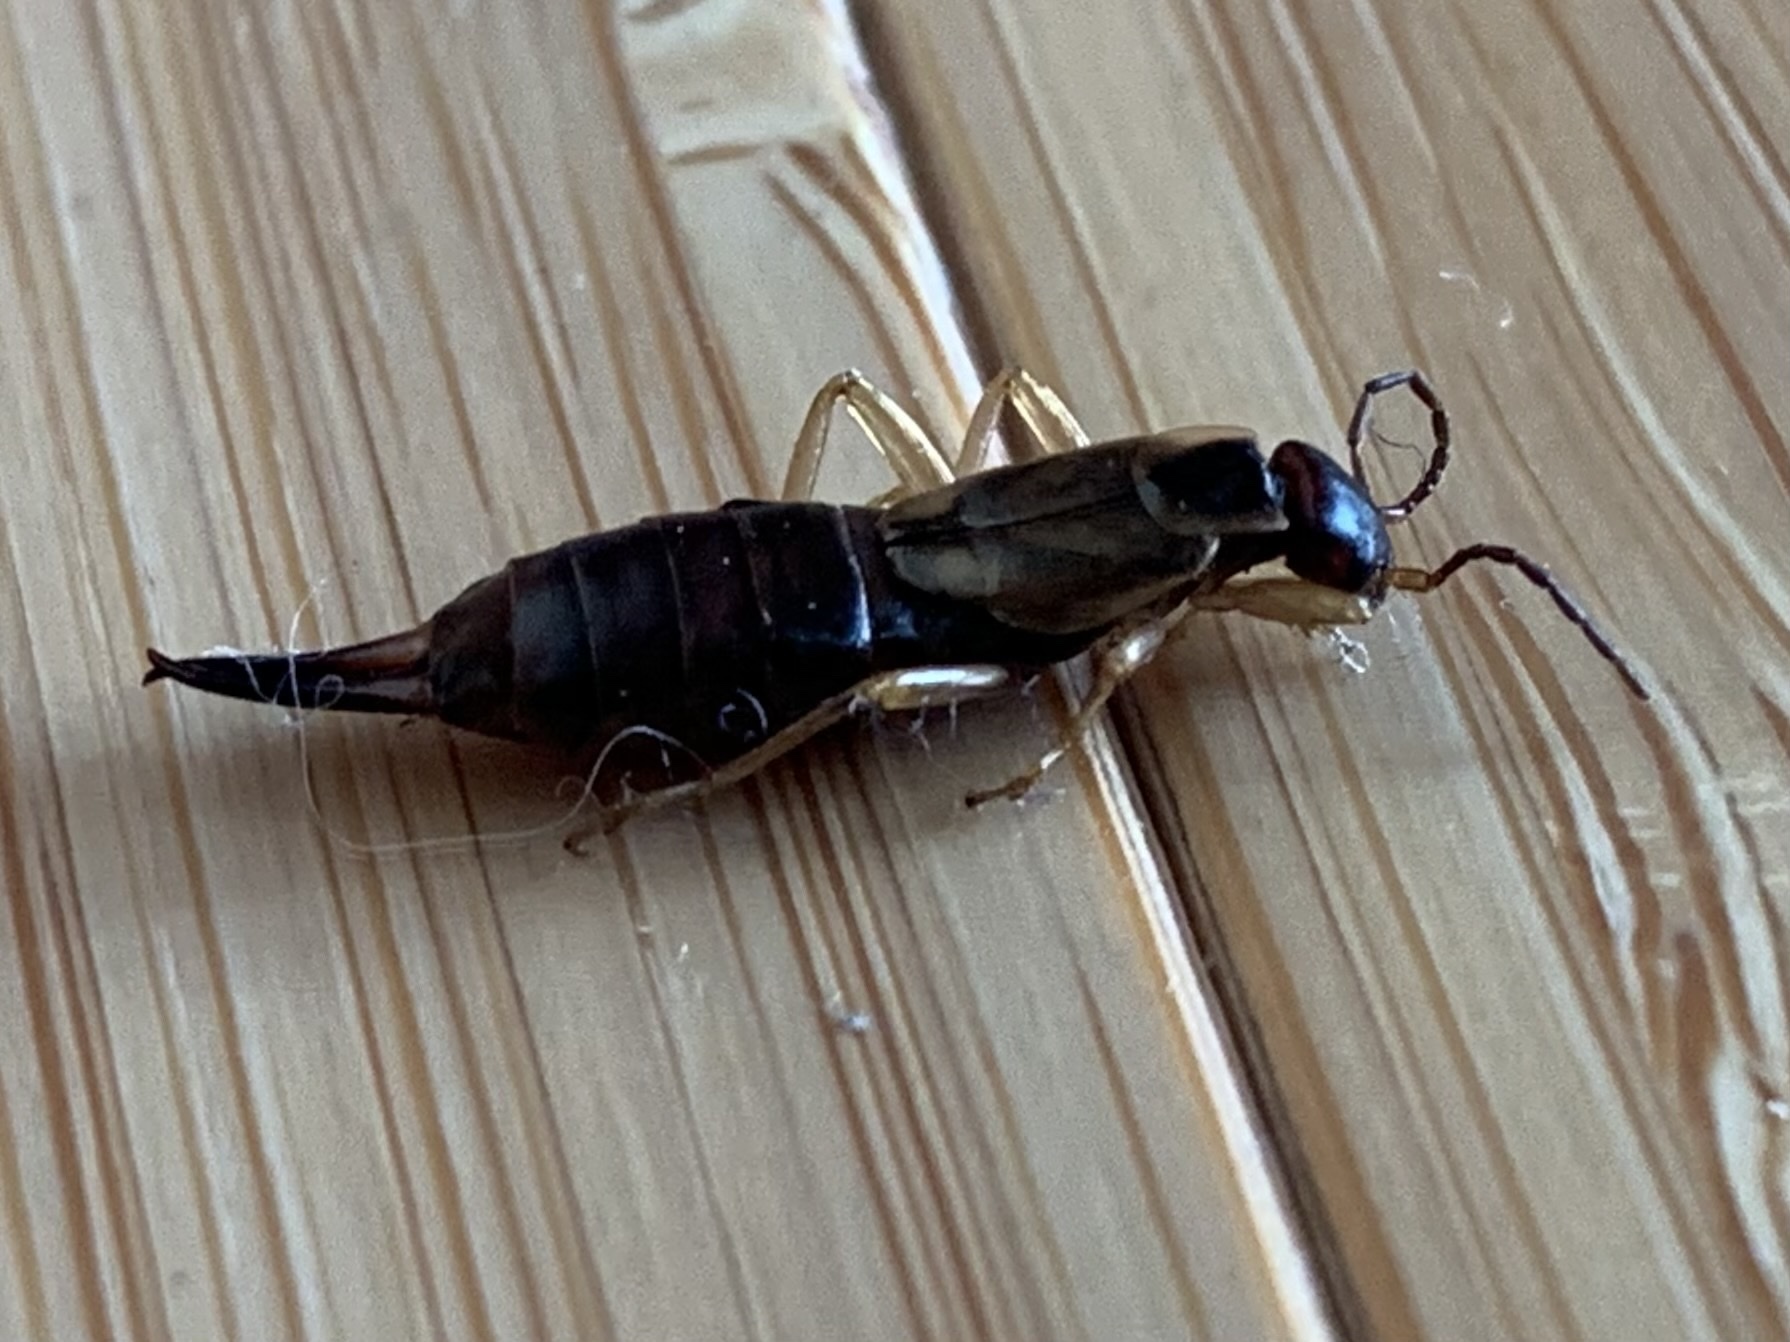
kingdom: Animalia
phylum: Arthropoda
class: Insecta
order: Dermaptera
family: Forficulidae
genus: Forficula
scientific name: Forficula
